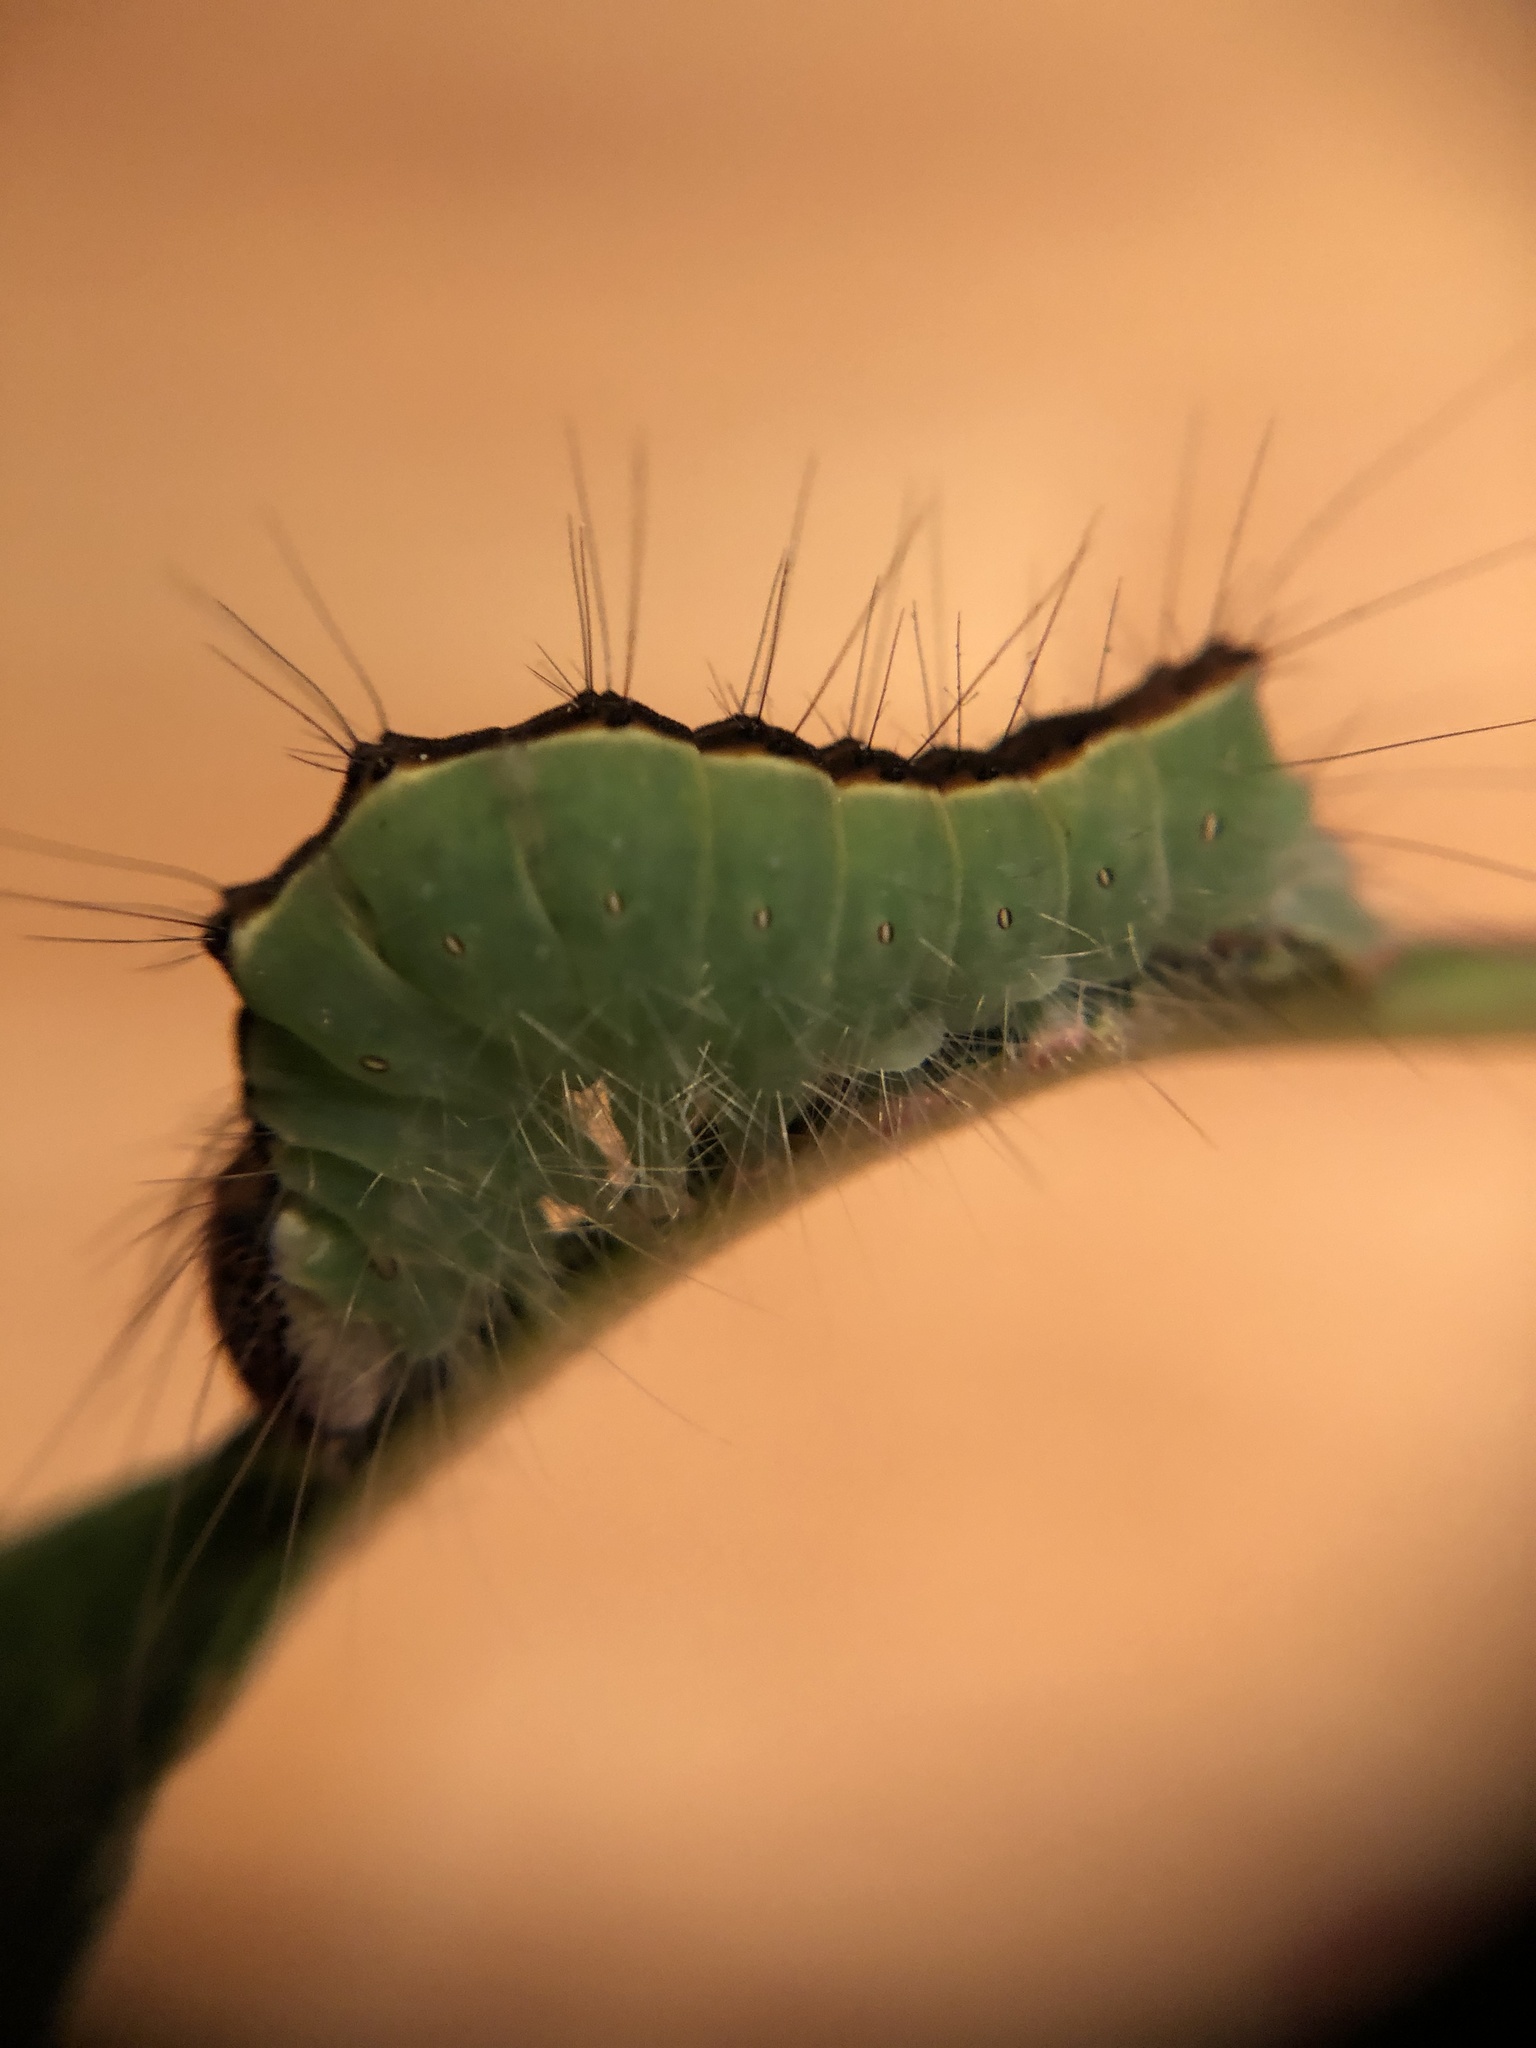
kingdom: Animalia
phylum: Arthropoda
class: Insecta
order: Lepidoptera
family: Noctuidae
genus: Acronicta
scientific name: Acronicta superans
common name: Splendid dagger
